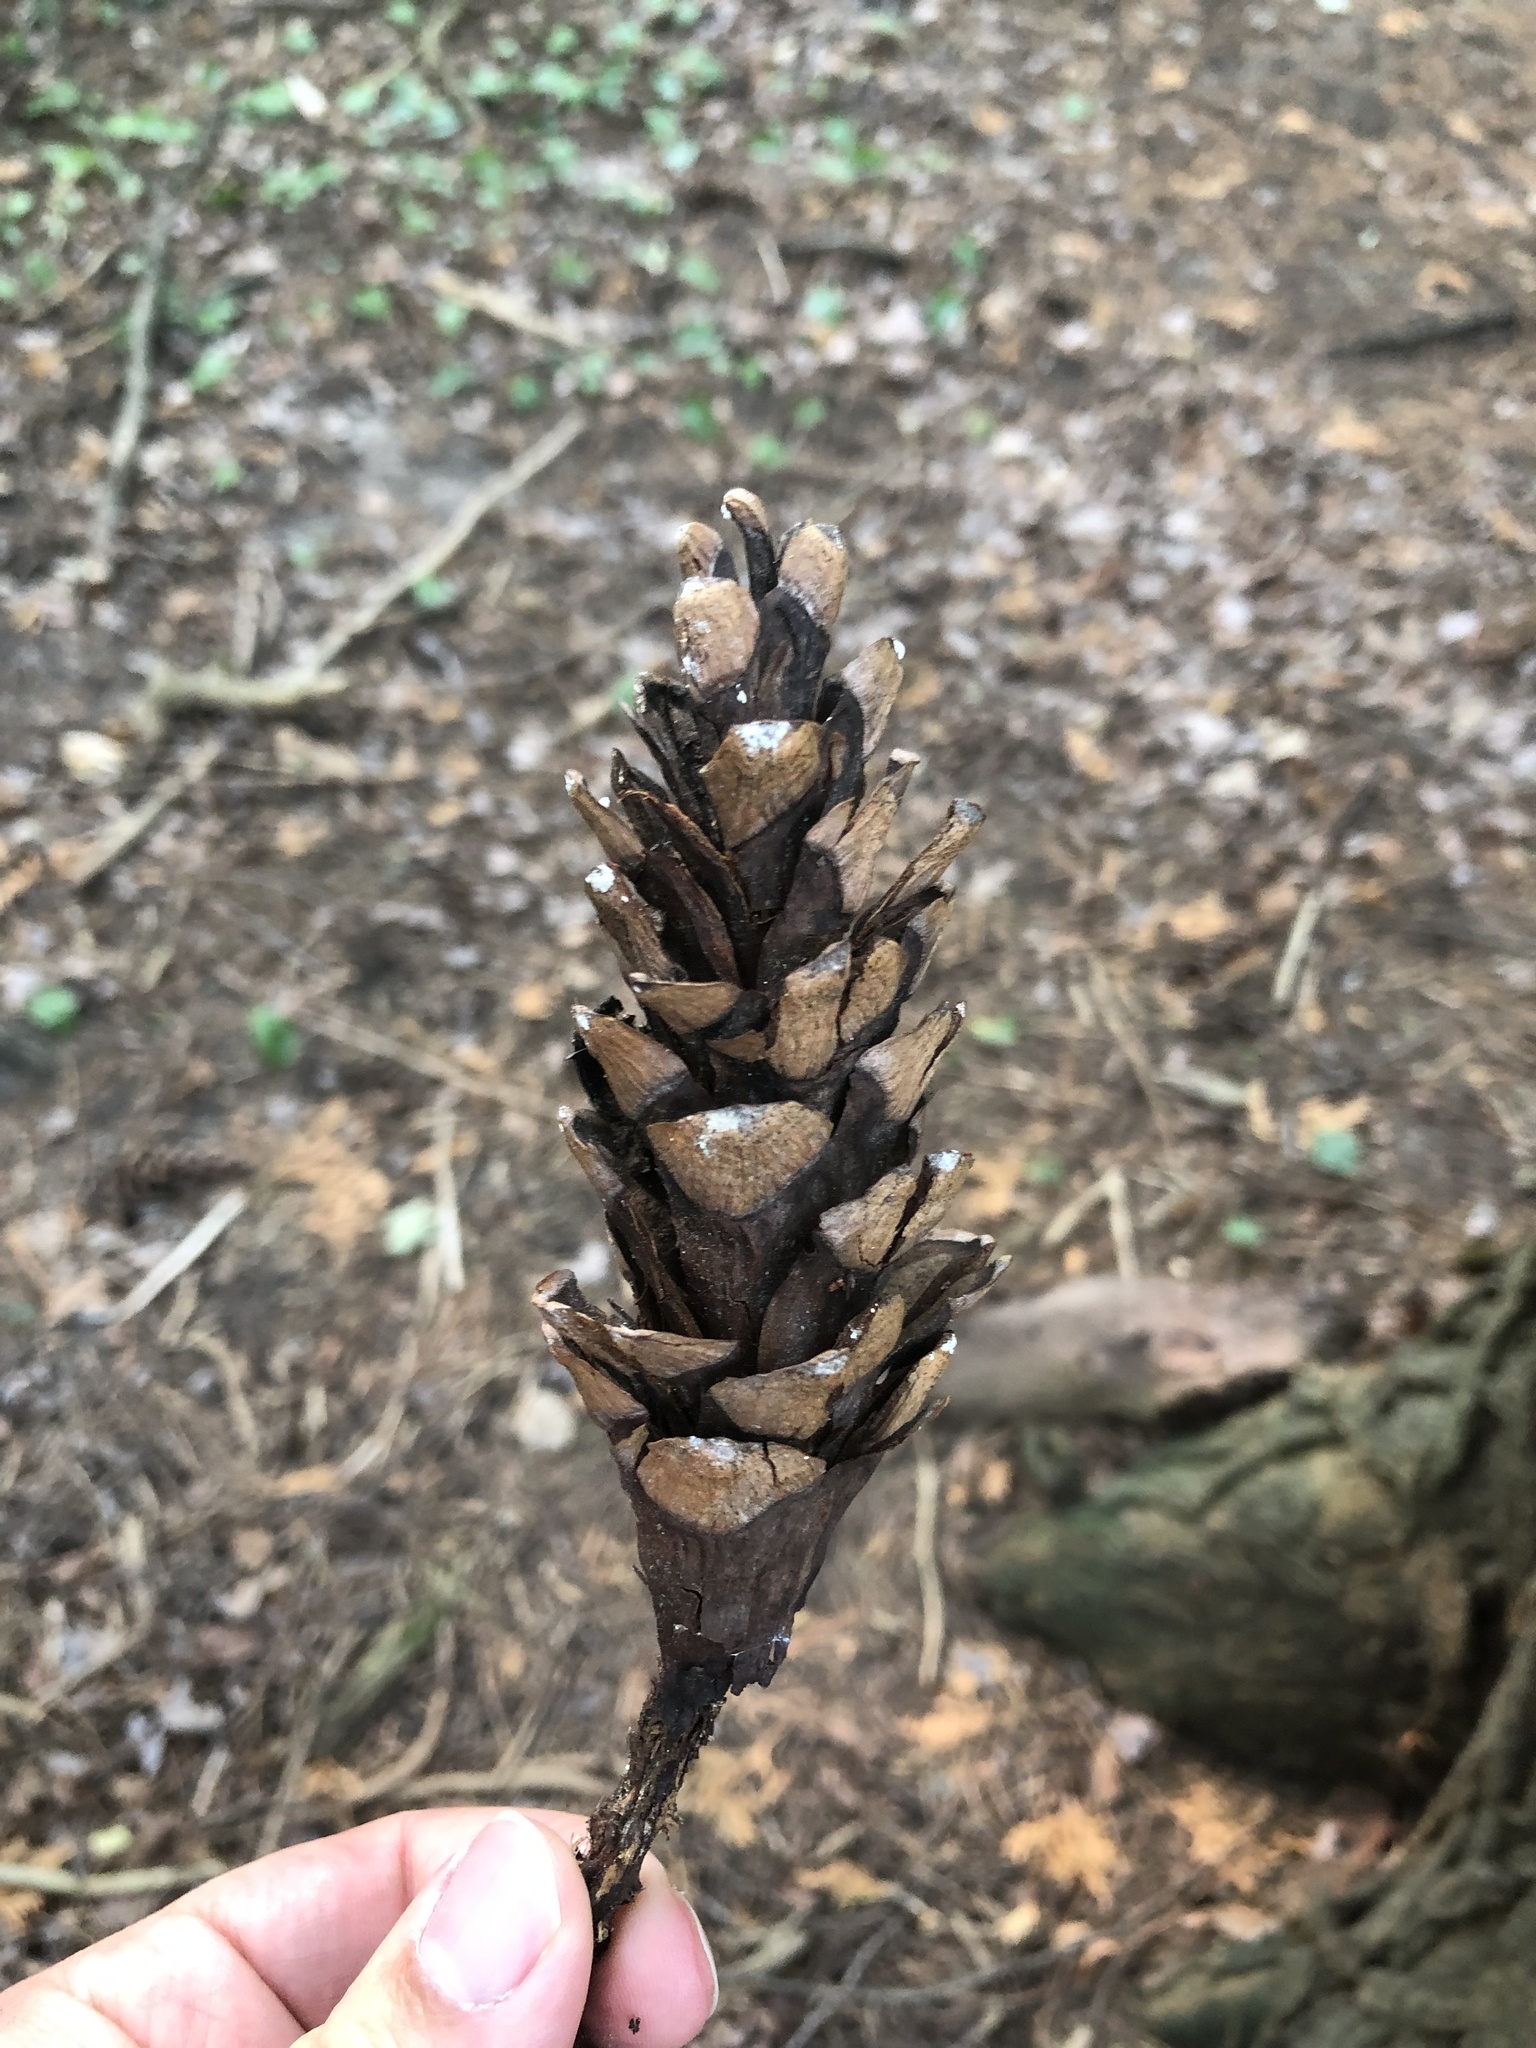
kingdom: Plantae
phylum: Tracheophyta
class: Pinopsida
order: Pinales
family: Pinaceae
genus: Pinus
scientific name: Pinus strobus
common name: Weymouth pine
